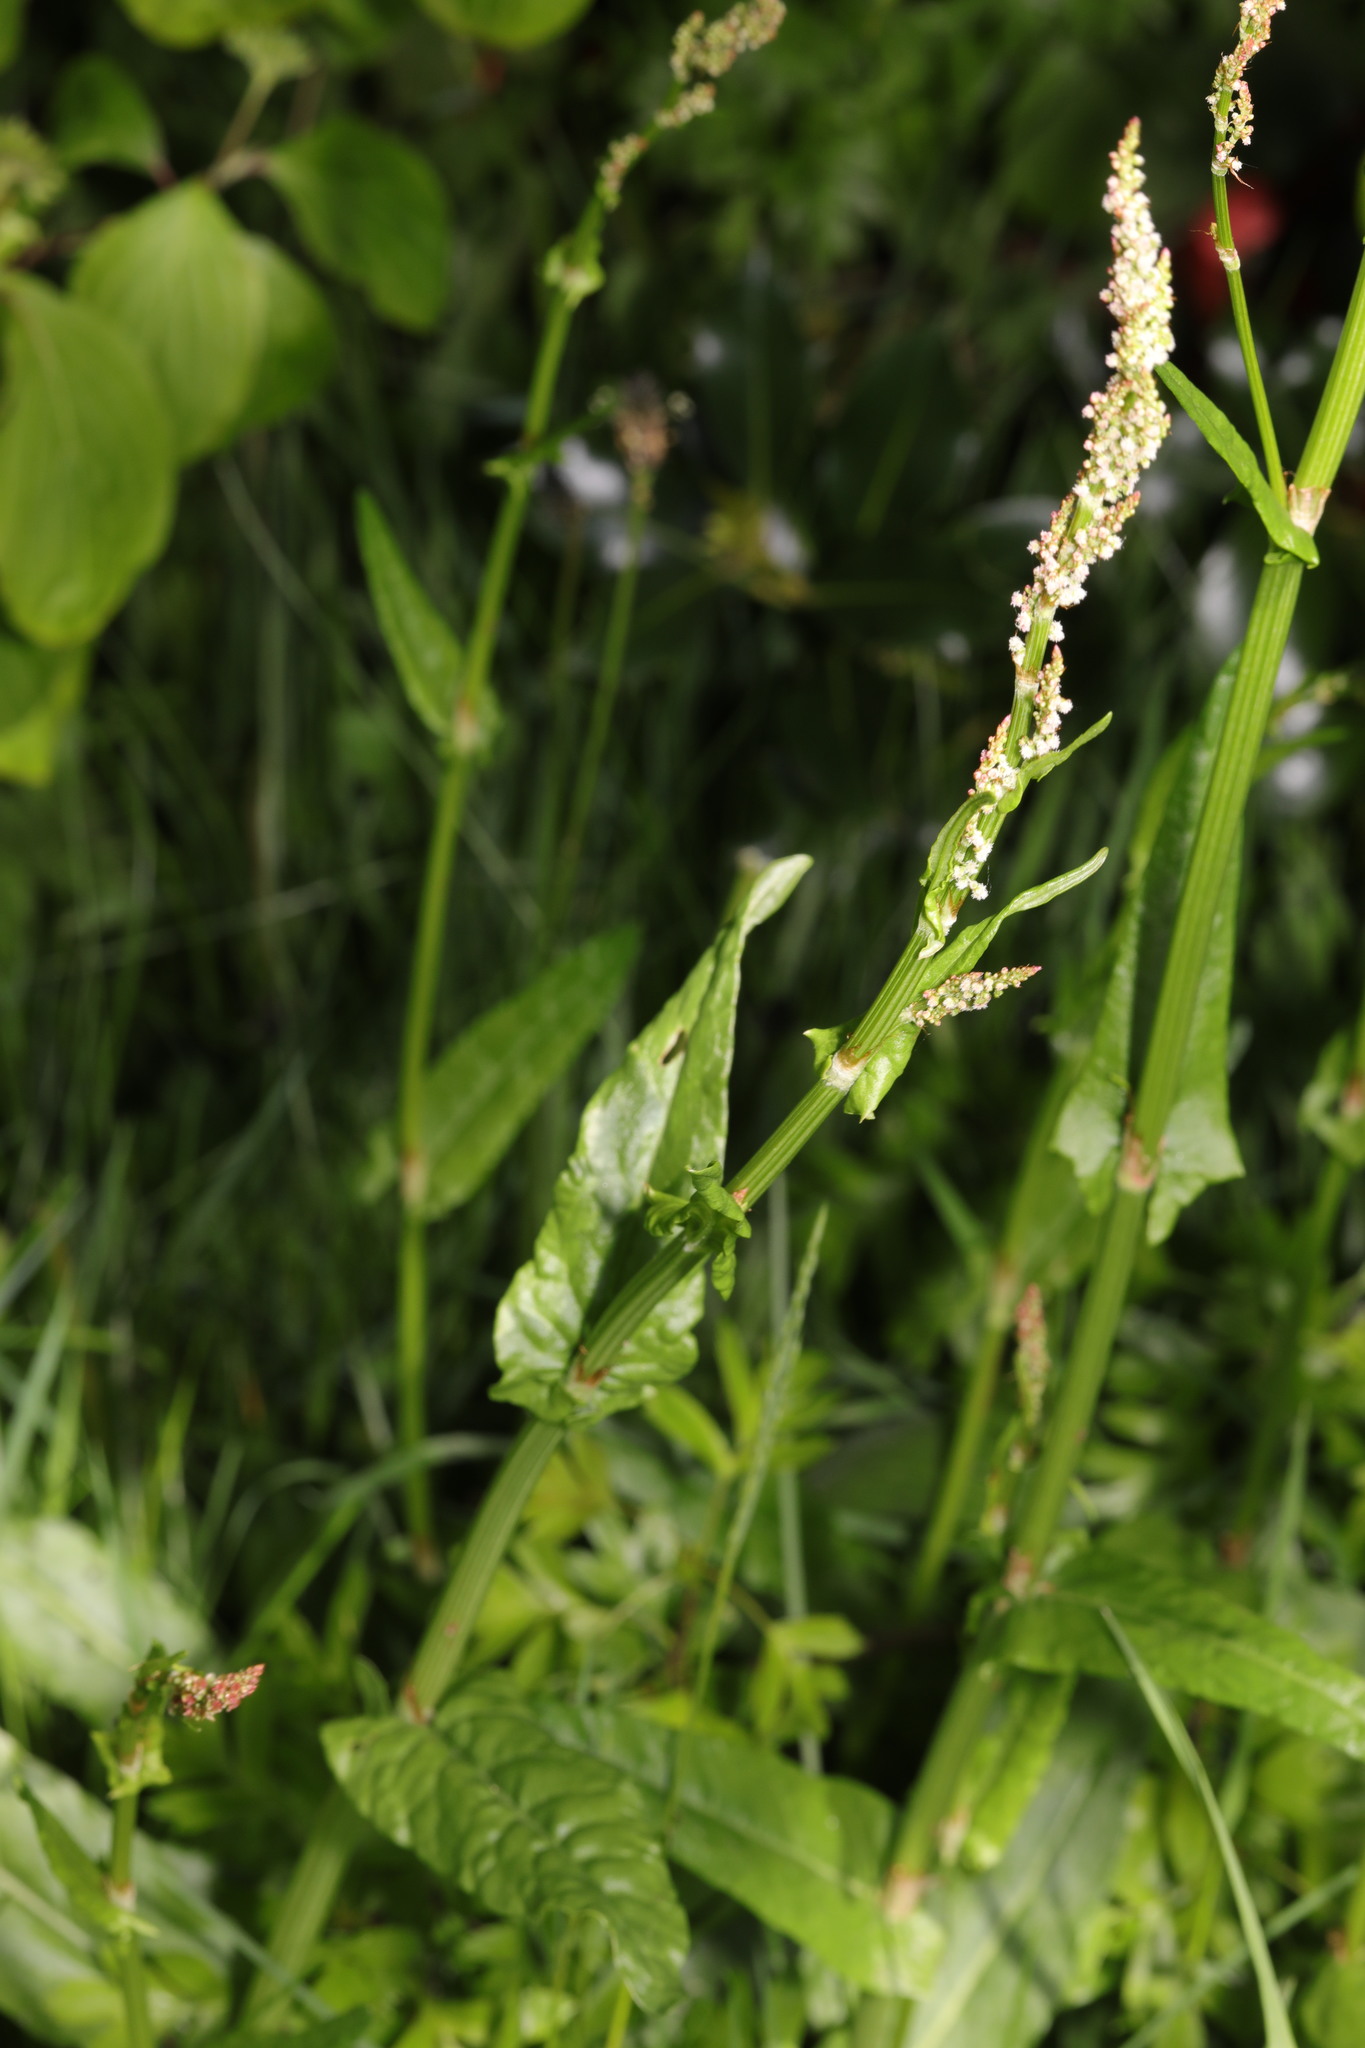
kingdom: Plantae
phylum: Tracheophyta
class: Magnoliopsida
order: Caryophyllales
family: Polygonaceae
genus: Rumex
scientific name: Rumex acetosa
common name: Garden sorrel
